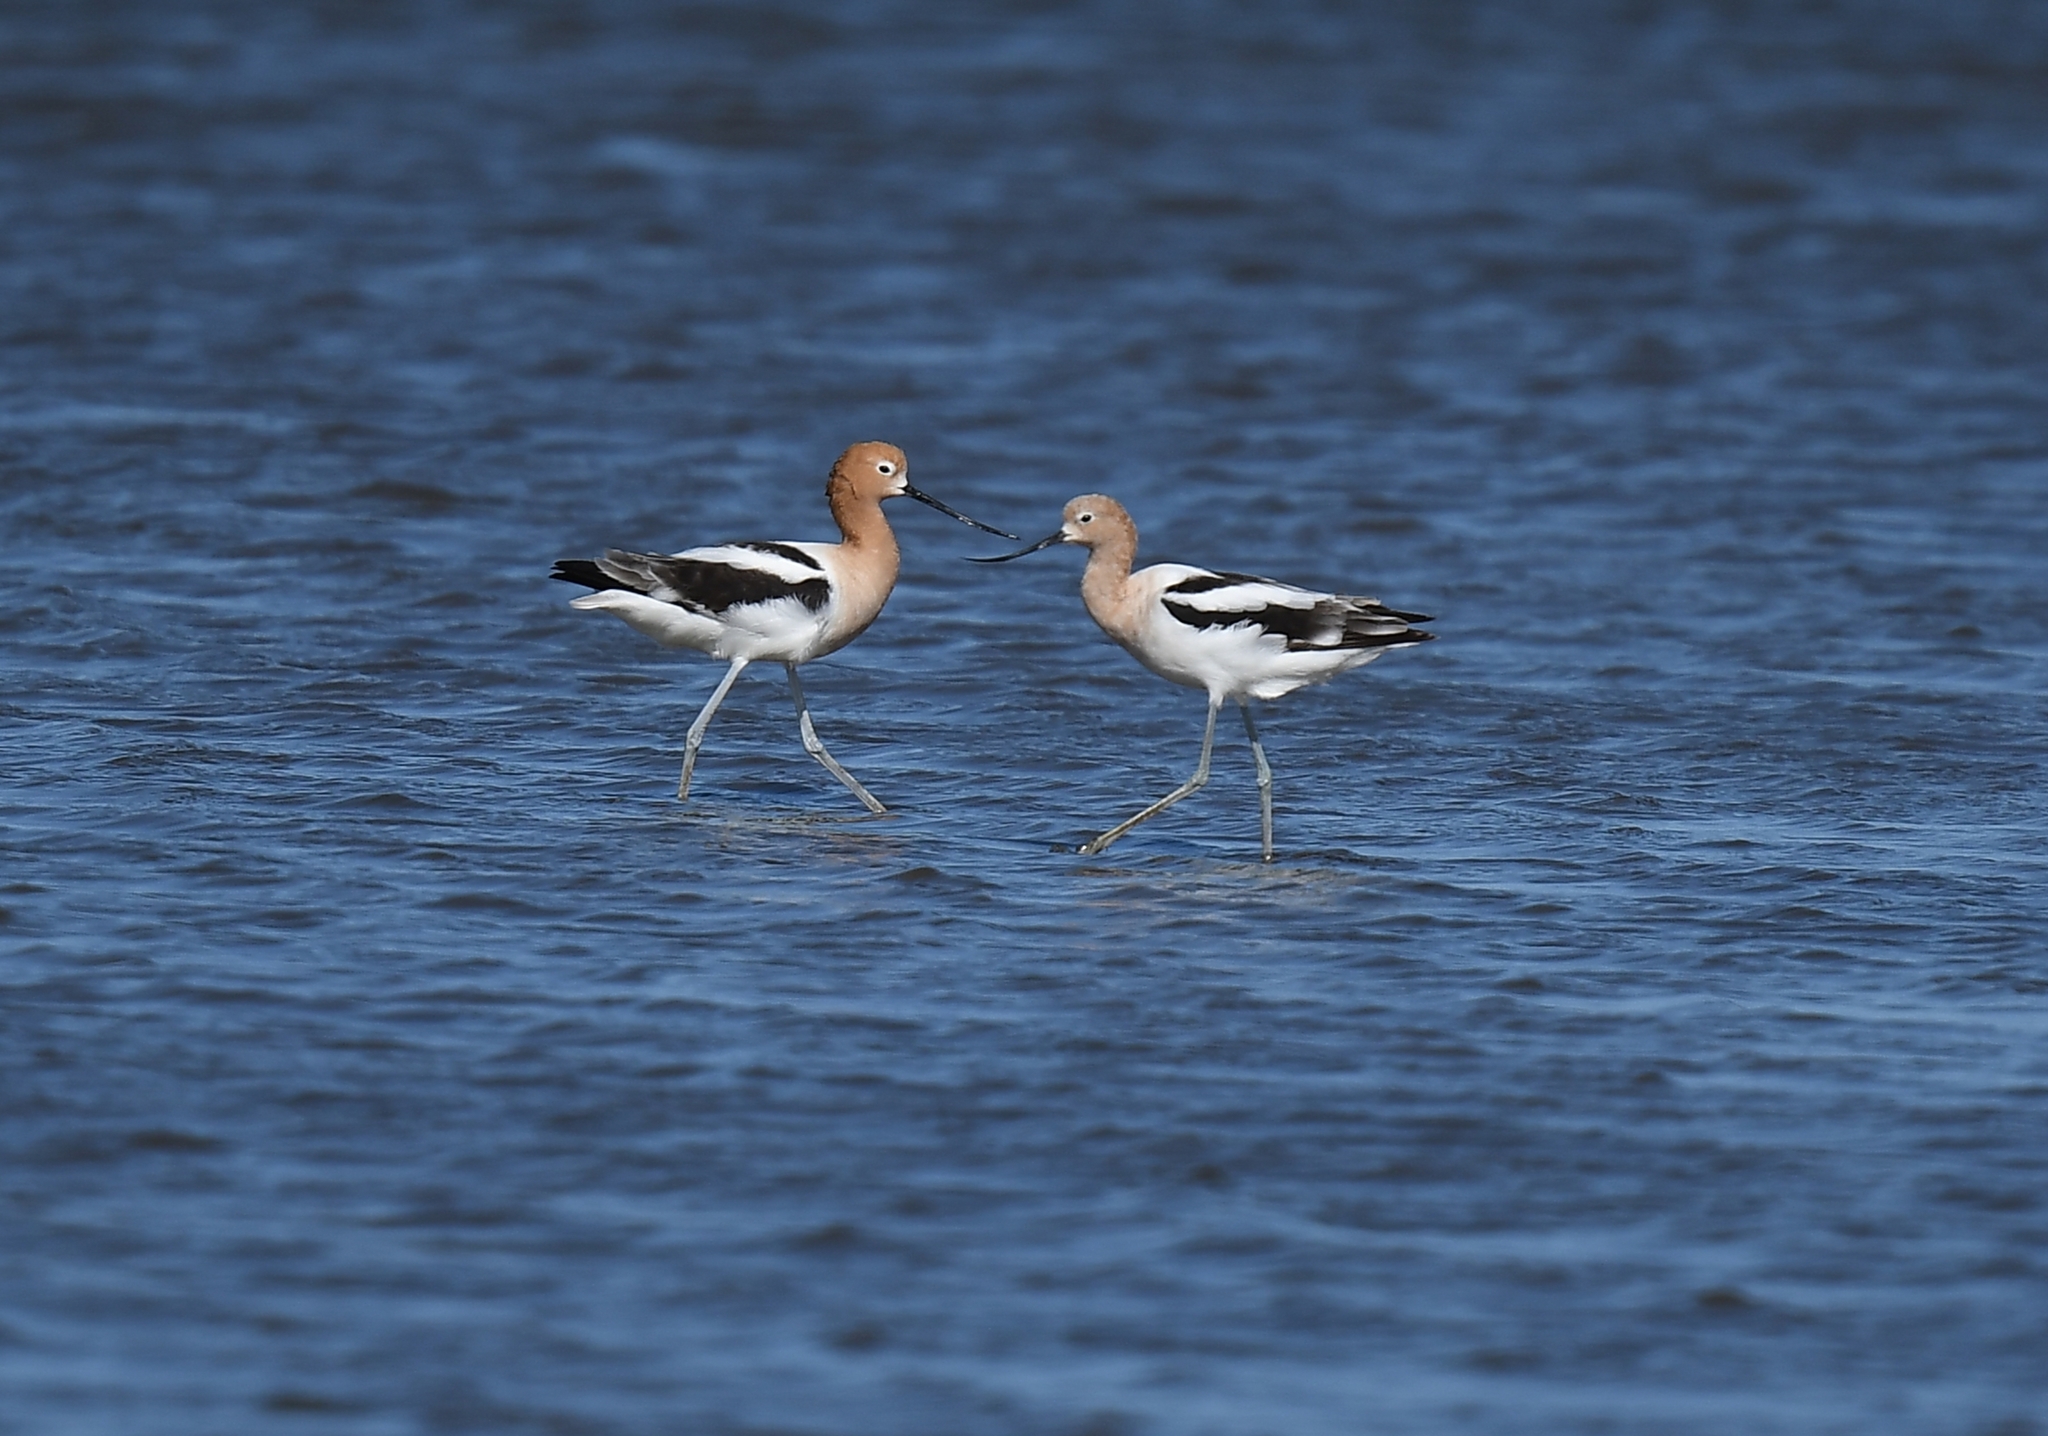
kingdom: Animalia
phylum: Chordata
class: Aves
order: Charadriiformes
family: Recurvirostridae
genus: Recurvirostra
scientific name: Recurvirostra americana
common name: American avocet
